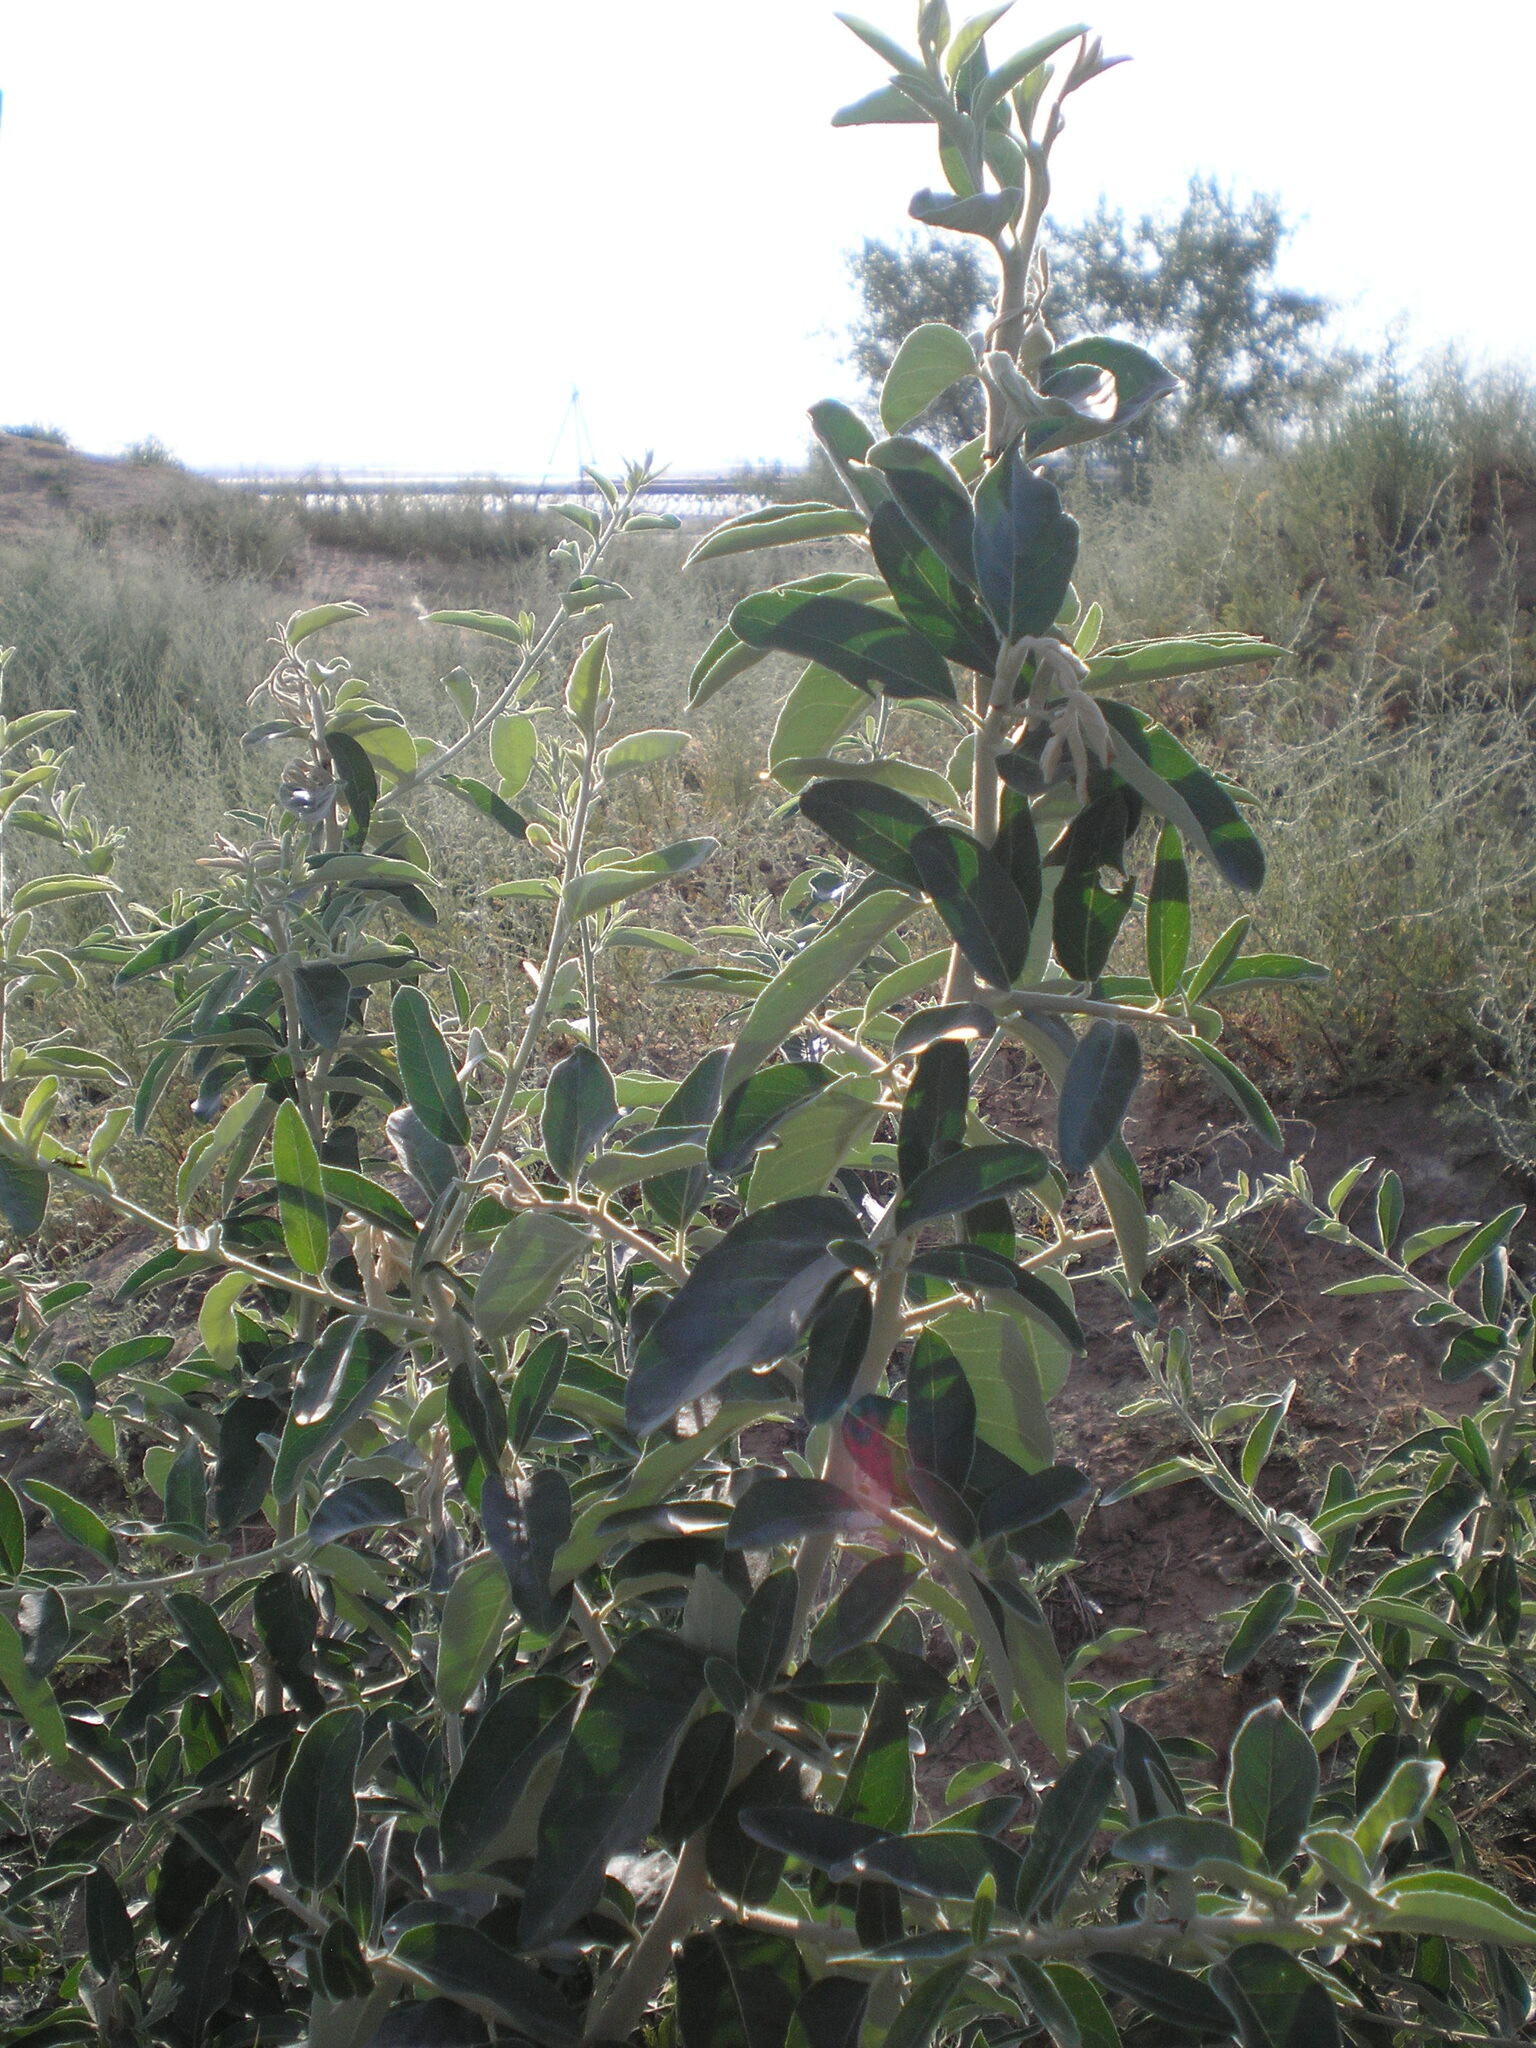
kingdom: Plantae
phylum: Tracheophyta
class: Magnoliopsida
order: Rosales
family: Elaeagnaceae
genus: Elaeagnus
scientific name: Elaeagnus angustifolia
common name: Russian olive
